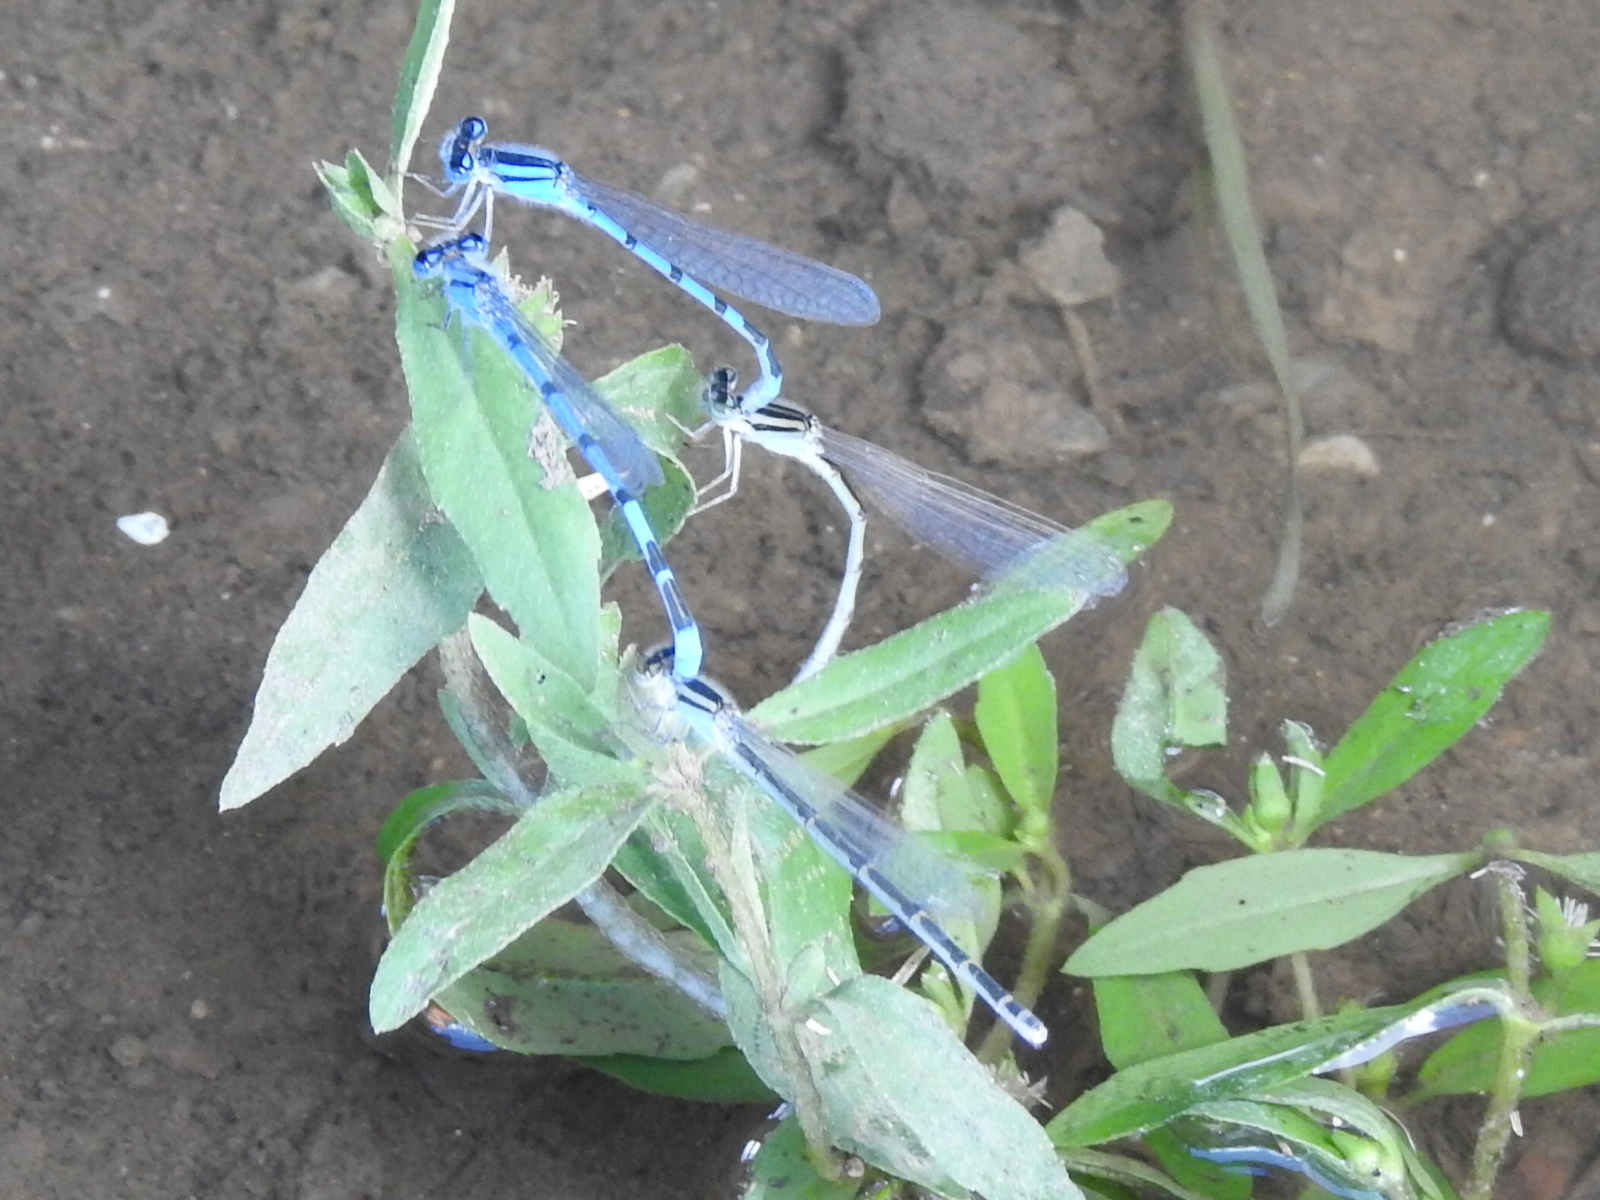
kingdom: Animalia
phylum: Arthropoda
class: Insecta
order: Odonata
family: Coenagrionidae
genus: Enallagma
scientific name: Enallagma civile
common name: Damselfly
